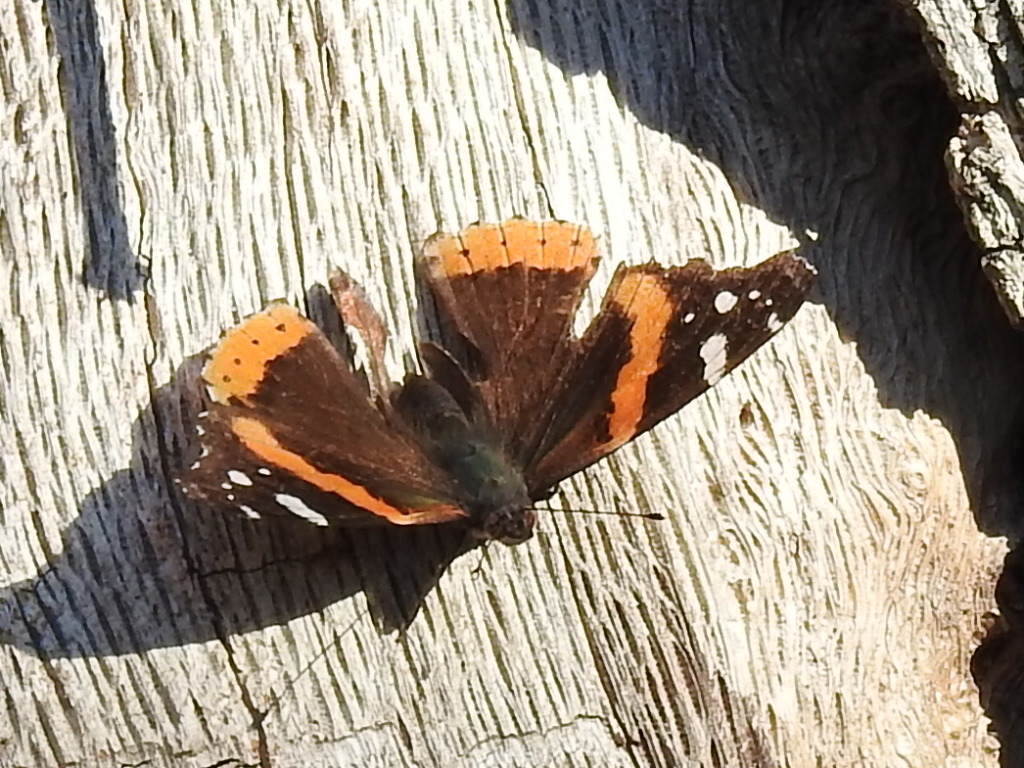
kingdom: Animalia
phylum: Arthropoda
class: Insecta
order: Lepidoptera
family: Nymphalidae
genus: Vanessa
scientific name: Vanessa atalanta
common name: Red admiral
